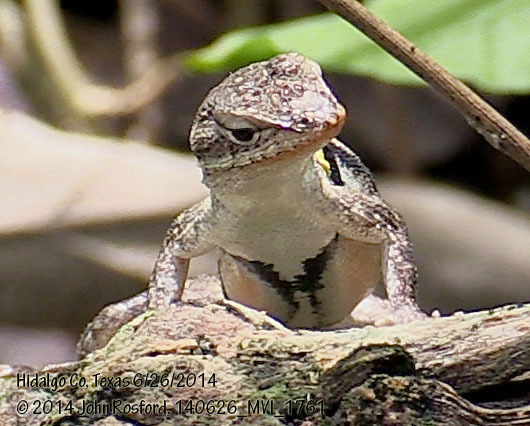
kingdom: Animalia
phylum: Chordata
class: Squamata
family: Phrynosomatidae
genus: Sceloporus
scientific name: Sceloporus variabilis
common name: Rosebelly lizard
